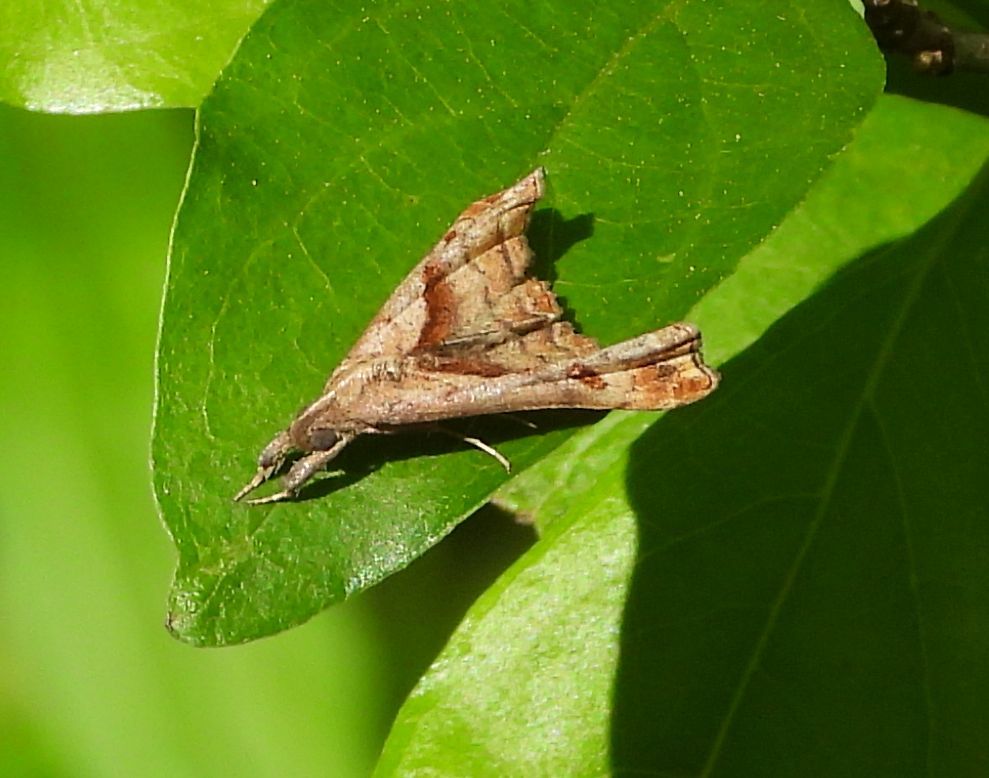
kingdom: Animalia
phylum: Arthropoda
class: Insecta
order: Lepidoptera
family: Erebidae
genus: Palthis
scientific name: Palthis angulalis
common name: Dark-spotted palthis moth
